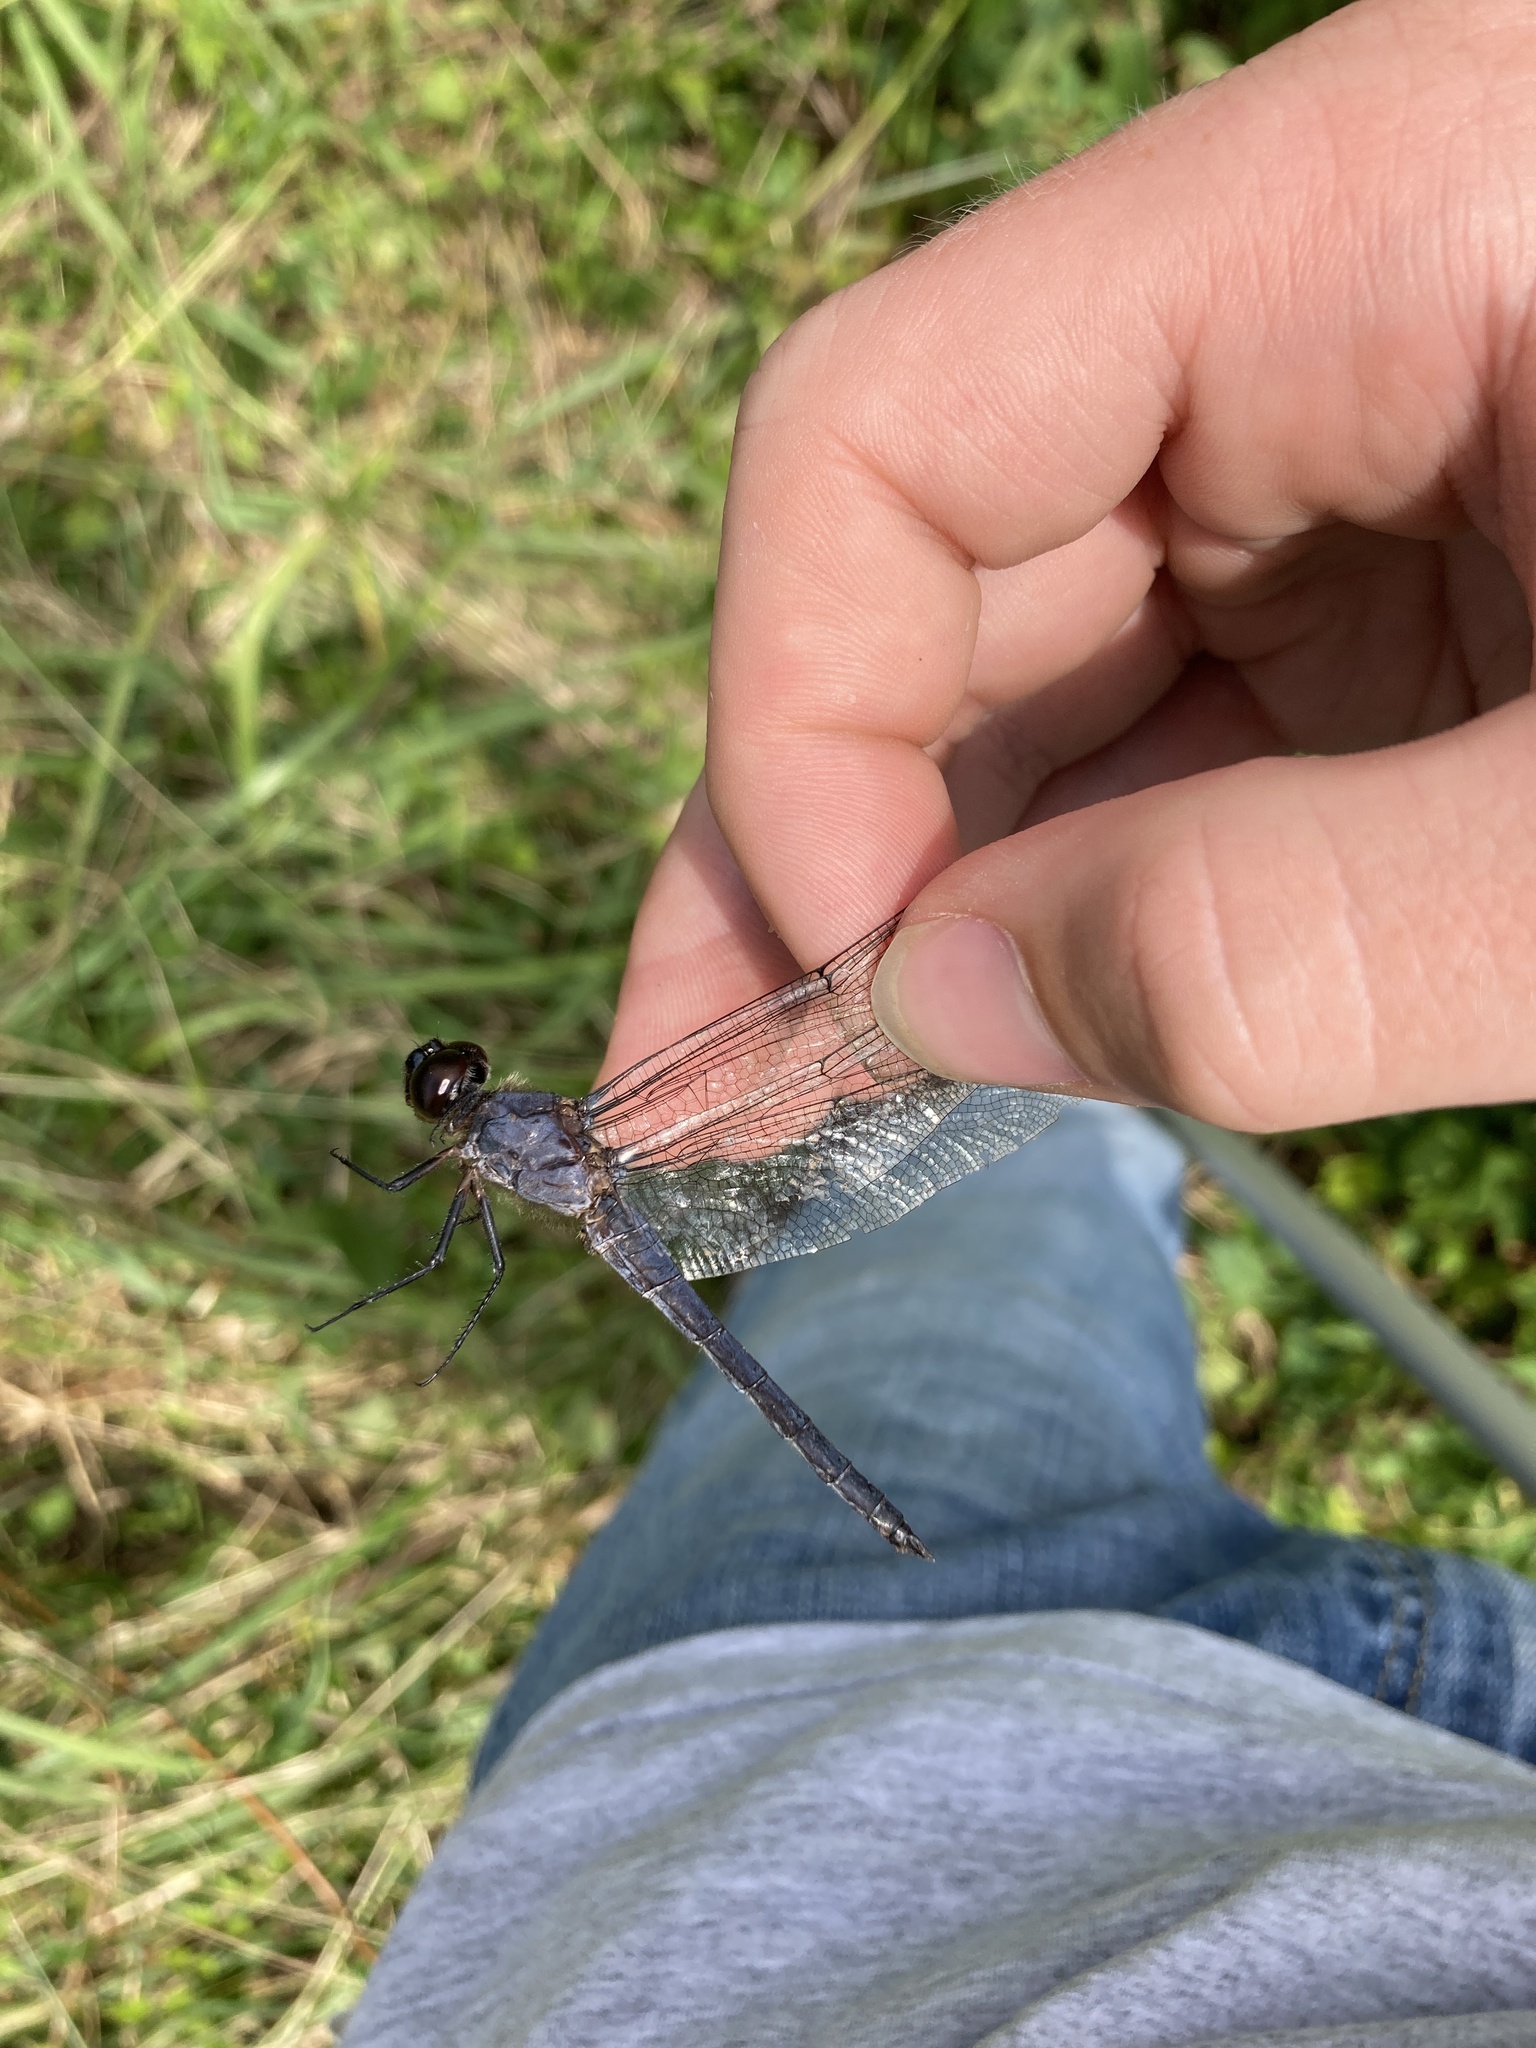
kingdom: Animalia
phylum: Arthropoda
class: Insecta
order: Odonata
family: Libellulidae
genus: Libellula
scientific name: Libellula incesta
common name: Slaty skimmer
